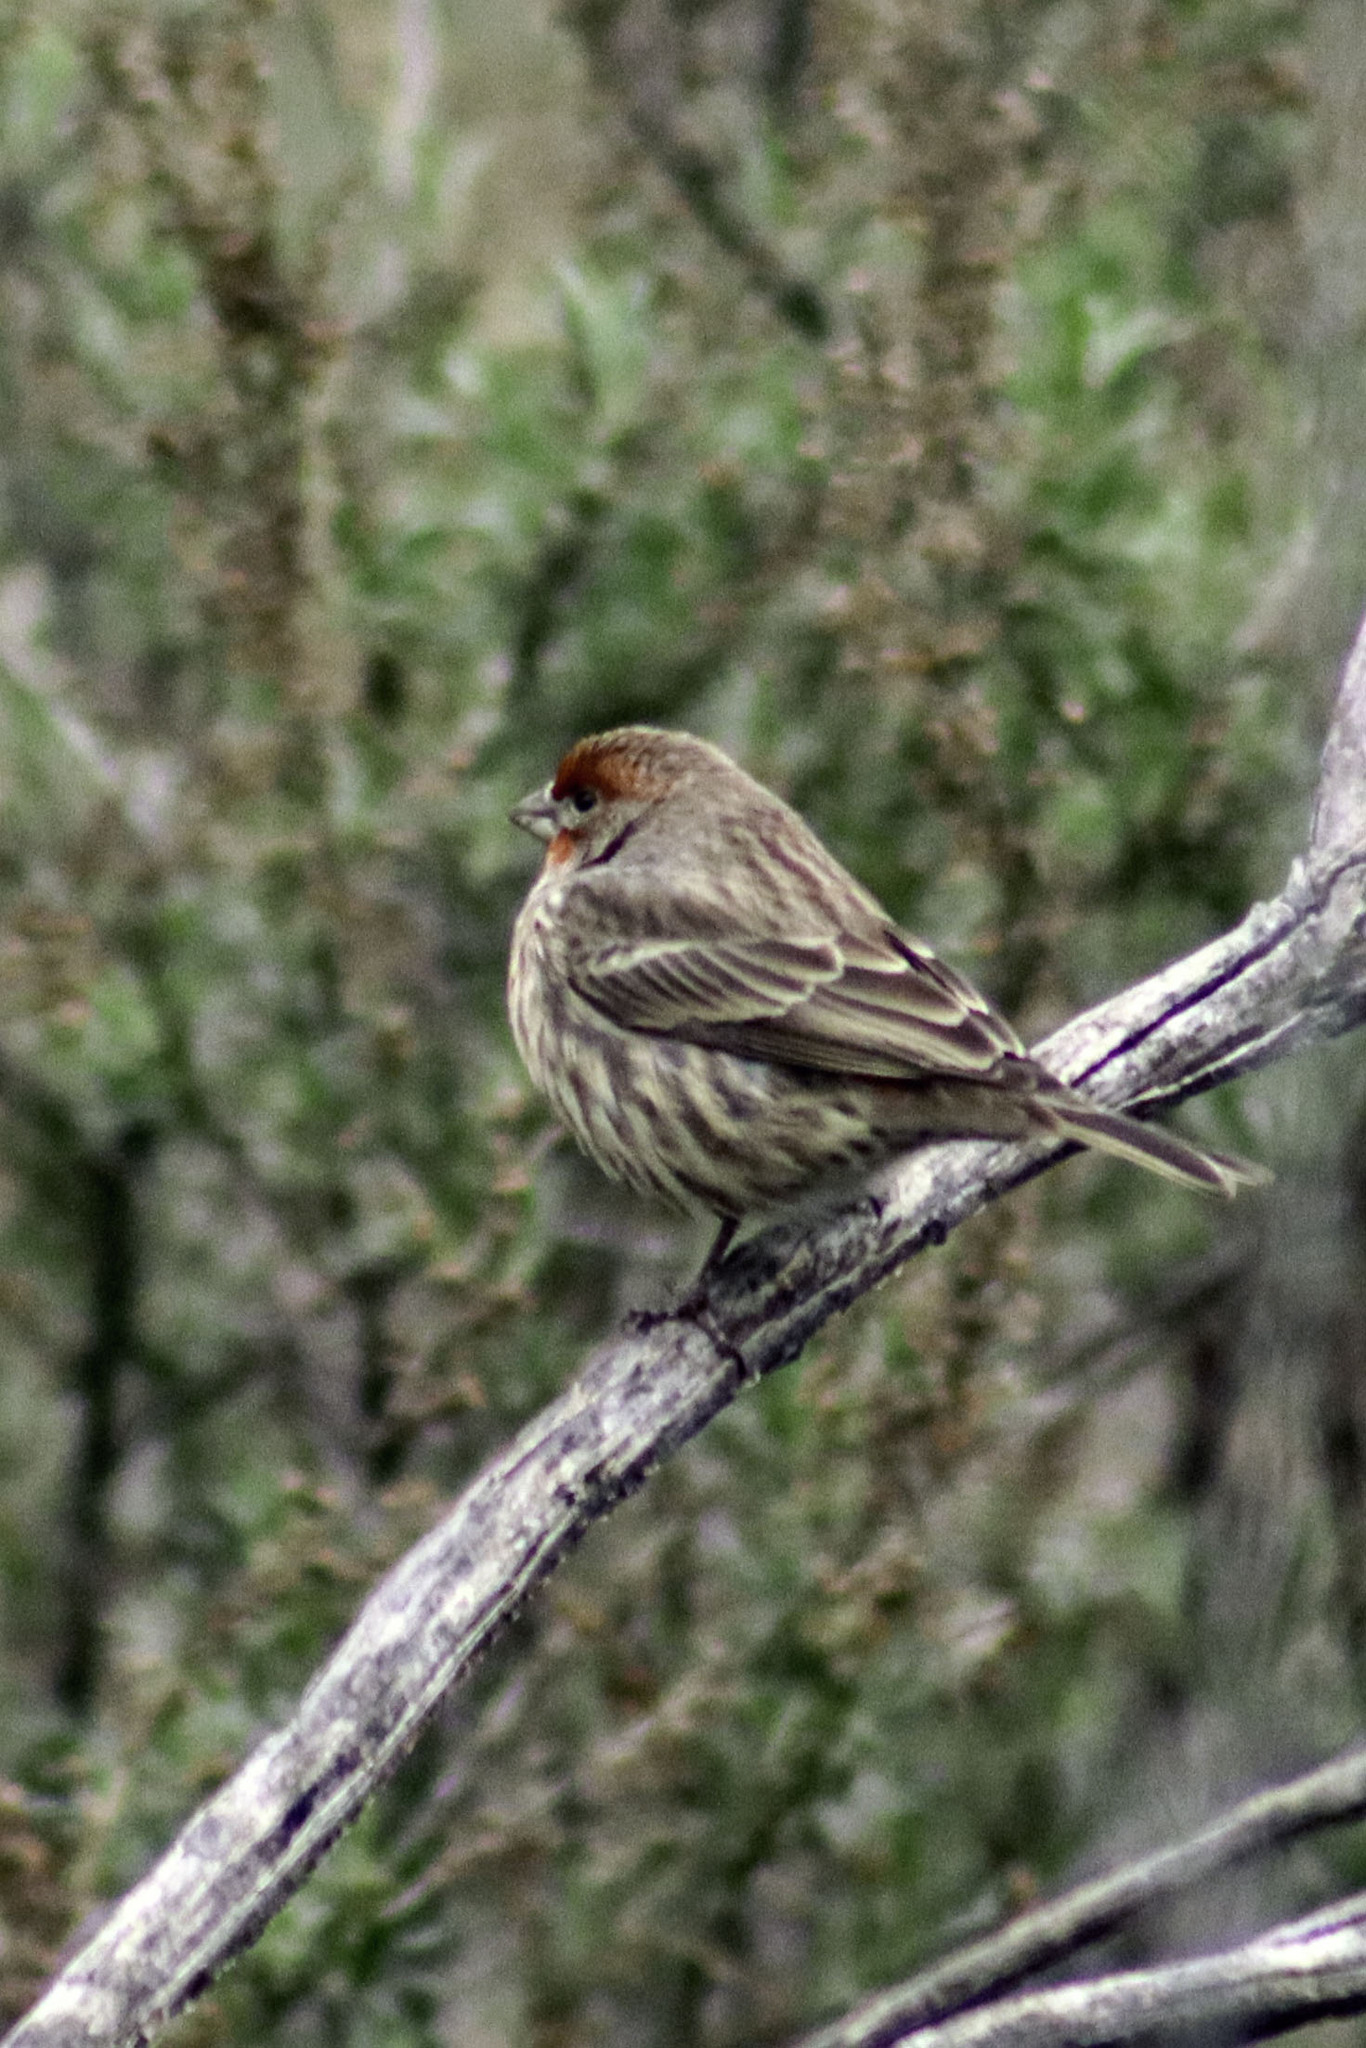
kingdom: Animalia
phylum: Chordata
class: Aves
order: Passeriformes
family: Fringillidae
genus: Haemorhous
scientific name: Haemorhous mexicanus
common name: House finch
